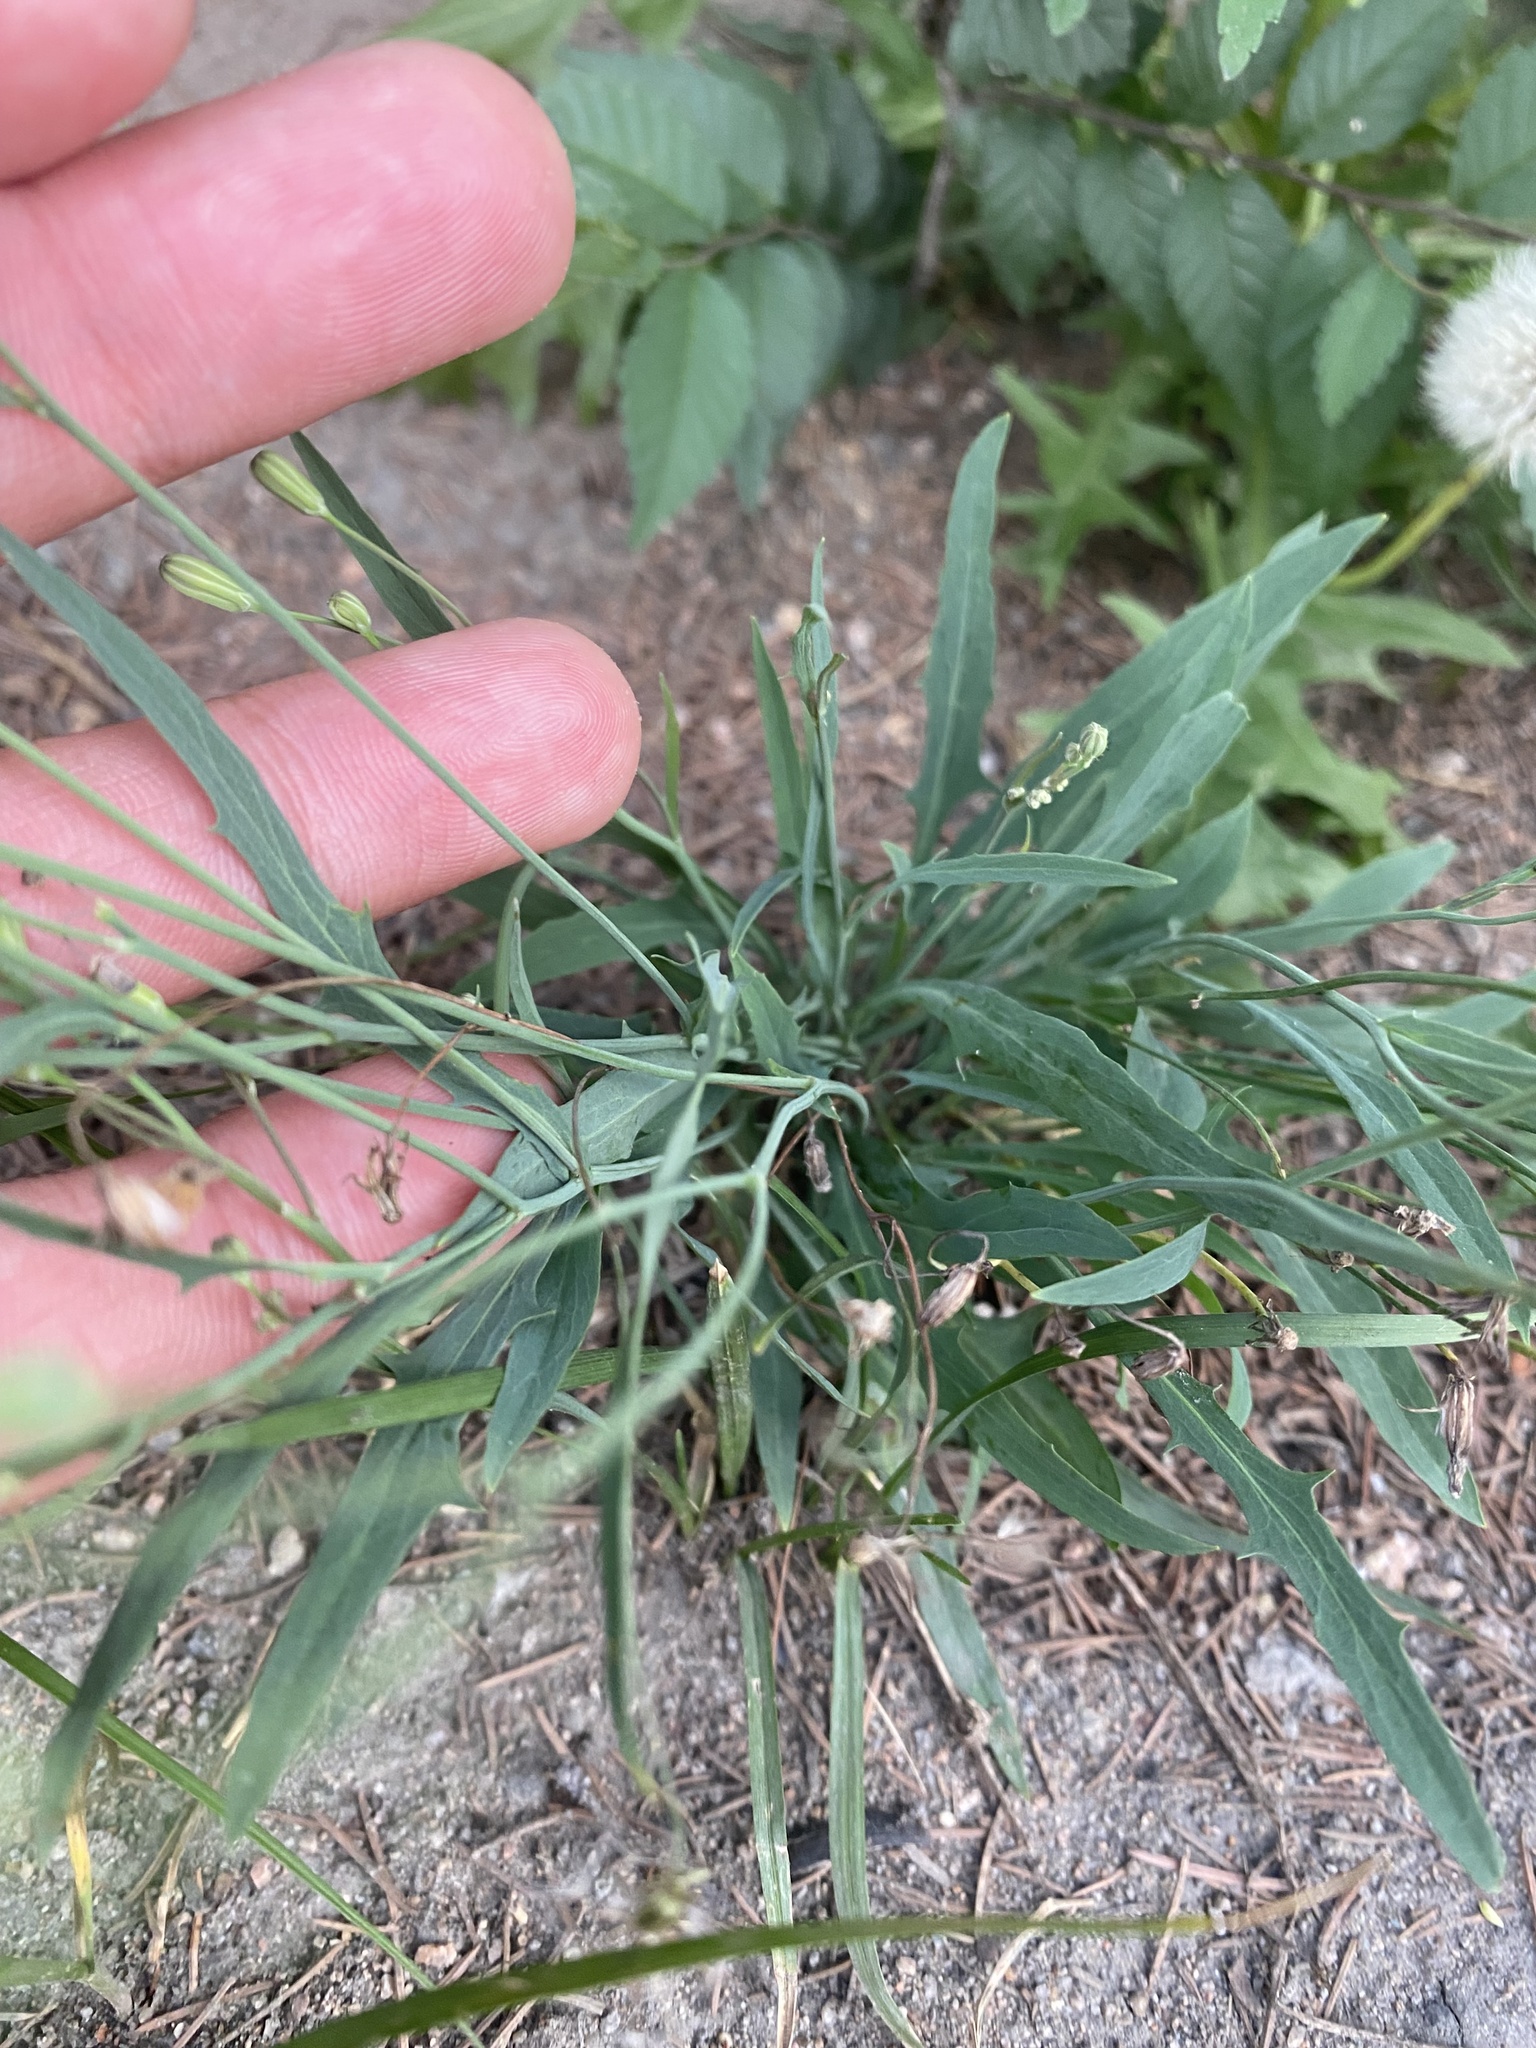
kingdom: Plantae
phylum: Tracheophyta
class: Magnoliopsida
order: Asterales
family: Asteraceae
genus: Ixeris
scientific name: Ixeris chinensis
